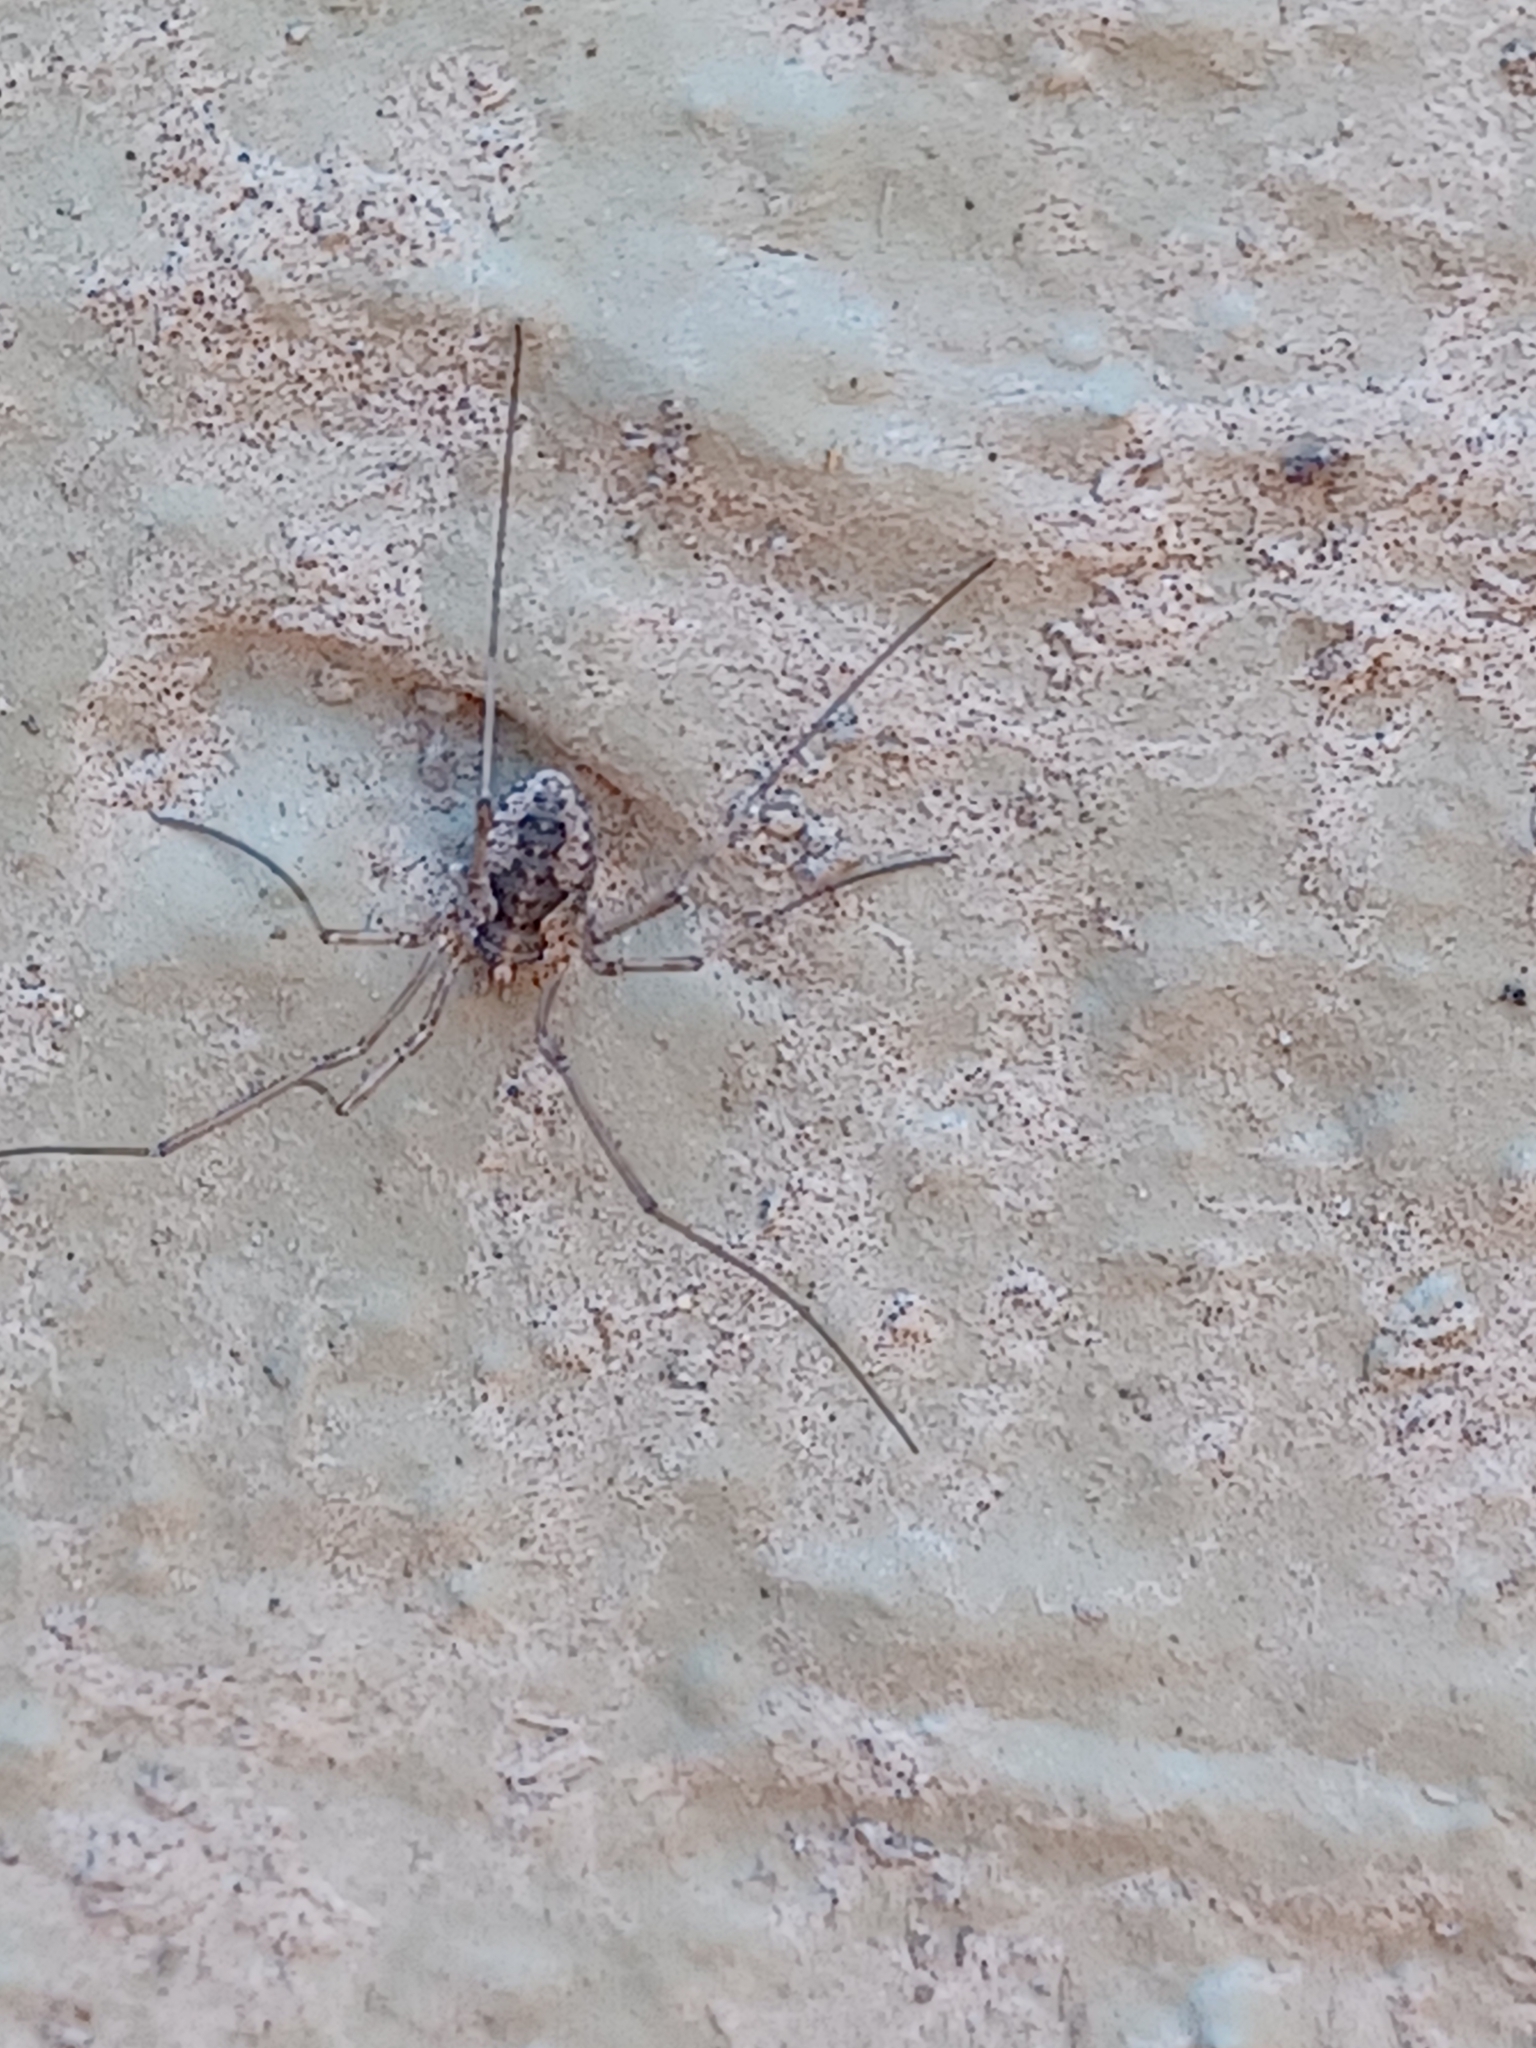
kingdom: Animalia
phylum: Arthropoda
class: Arachnida
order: Opiliones
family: Phalangiidae
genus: Phalangium
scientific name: Phalangium opilio
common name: Daddy longleg
